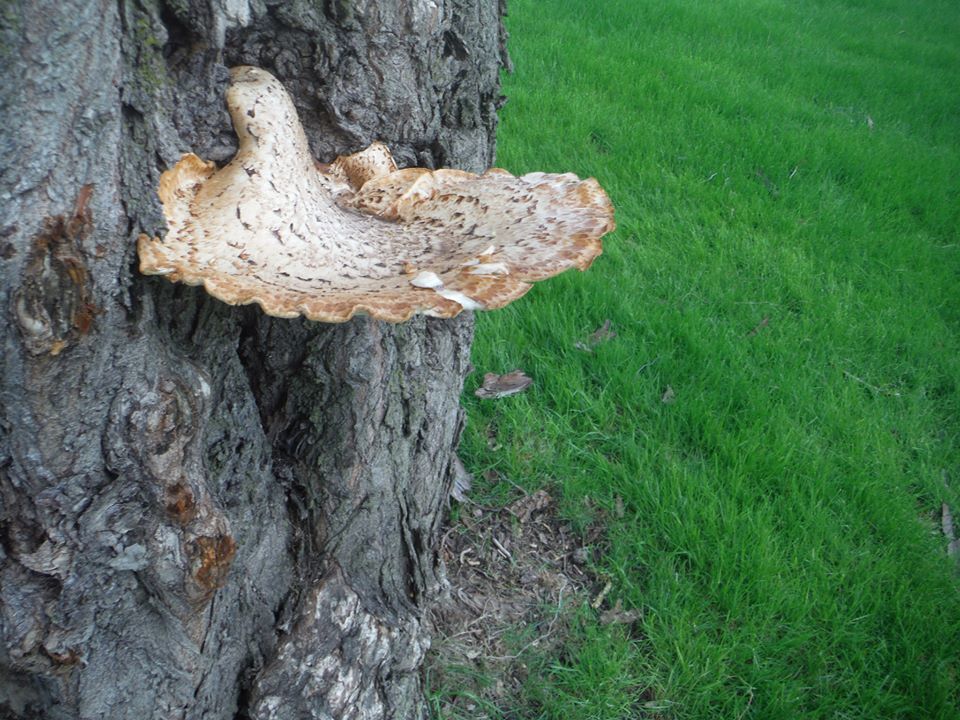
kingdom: Fungi
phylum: Basidiomycota
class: Agaricomycetes
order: Polyporales
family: Polyporaceae
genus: Cerioporus
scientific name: Cerioporus squamosus
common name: Dryad's saddle
